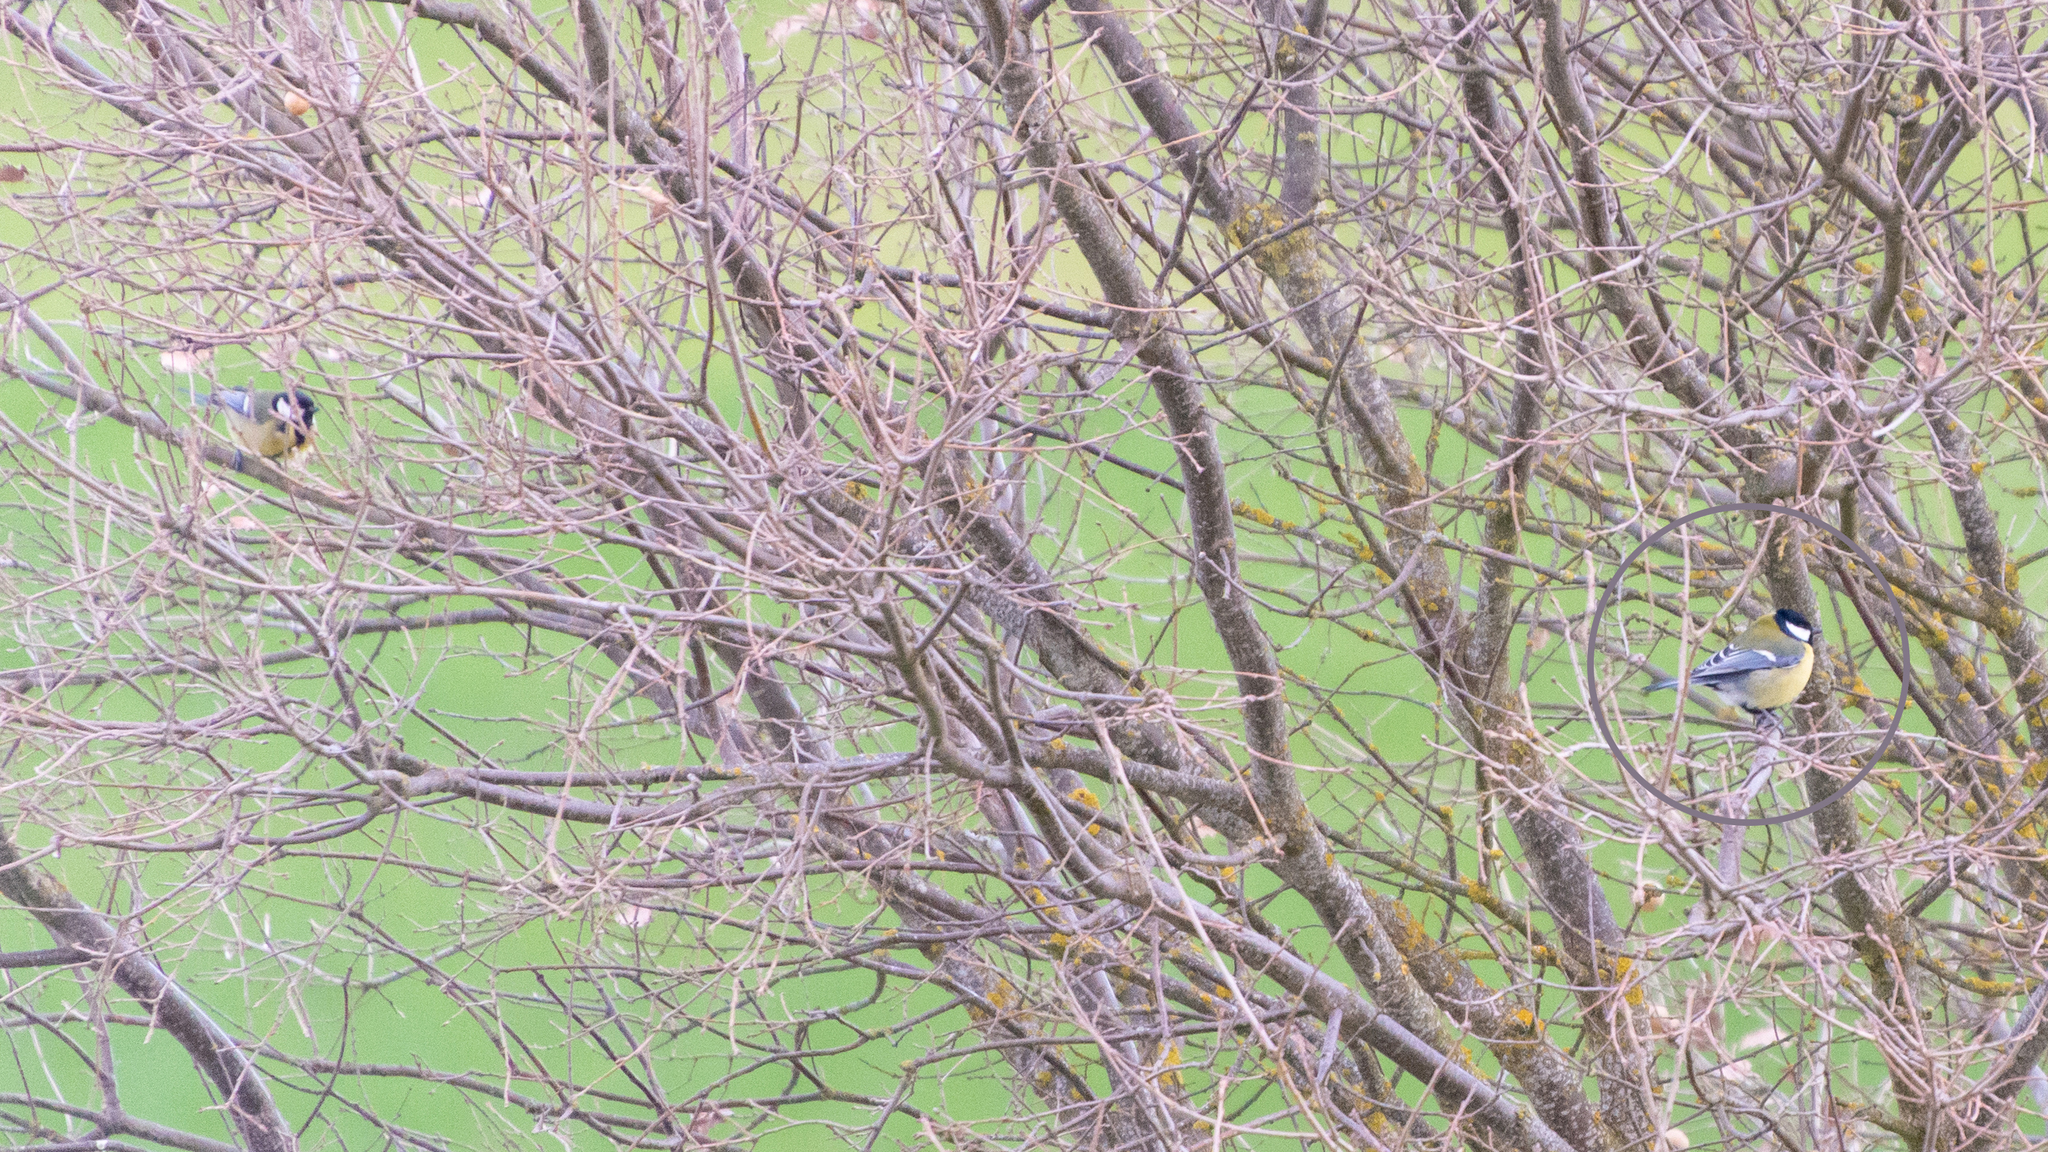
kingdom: Animalia
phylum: Chordata
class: Aves
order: Passeriformes
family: Paridae
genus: Parus
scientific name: Parus major
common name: Great tit
